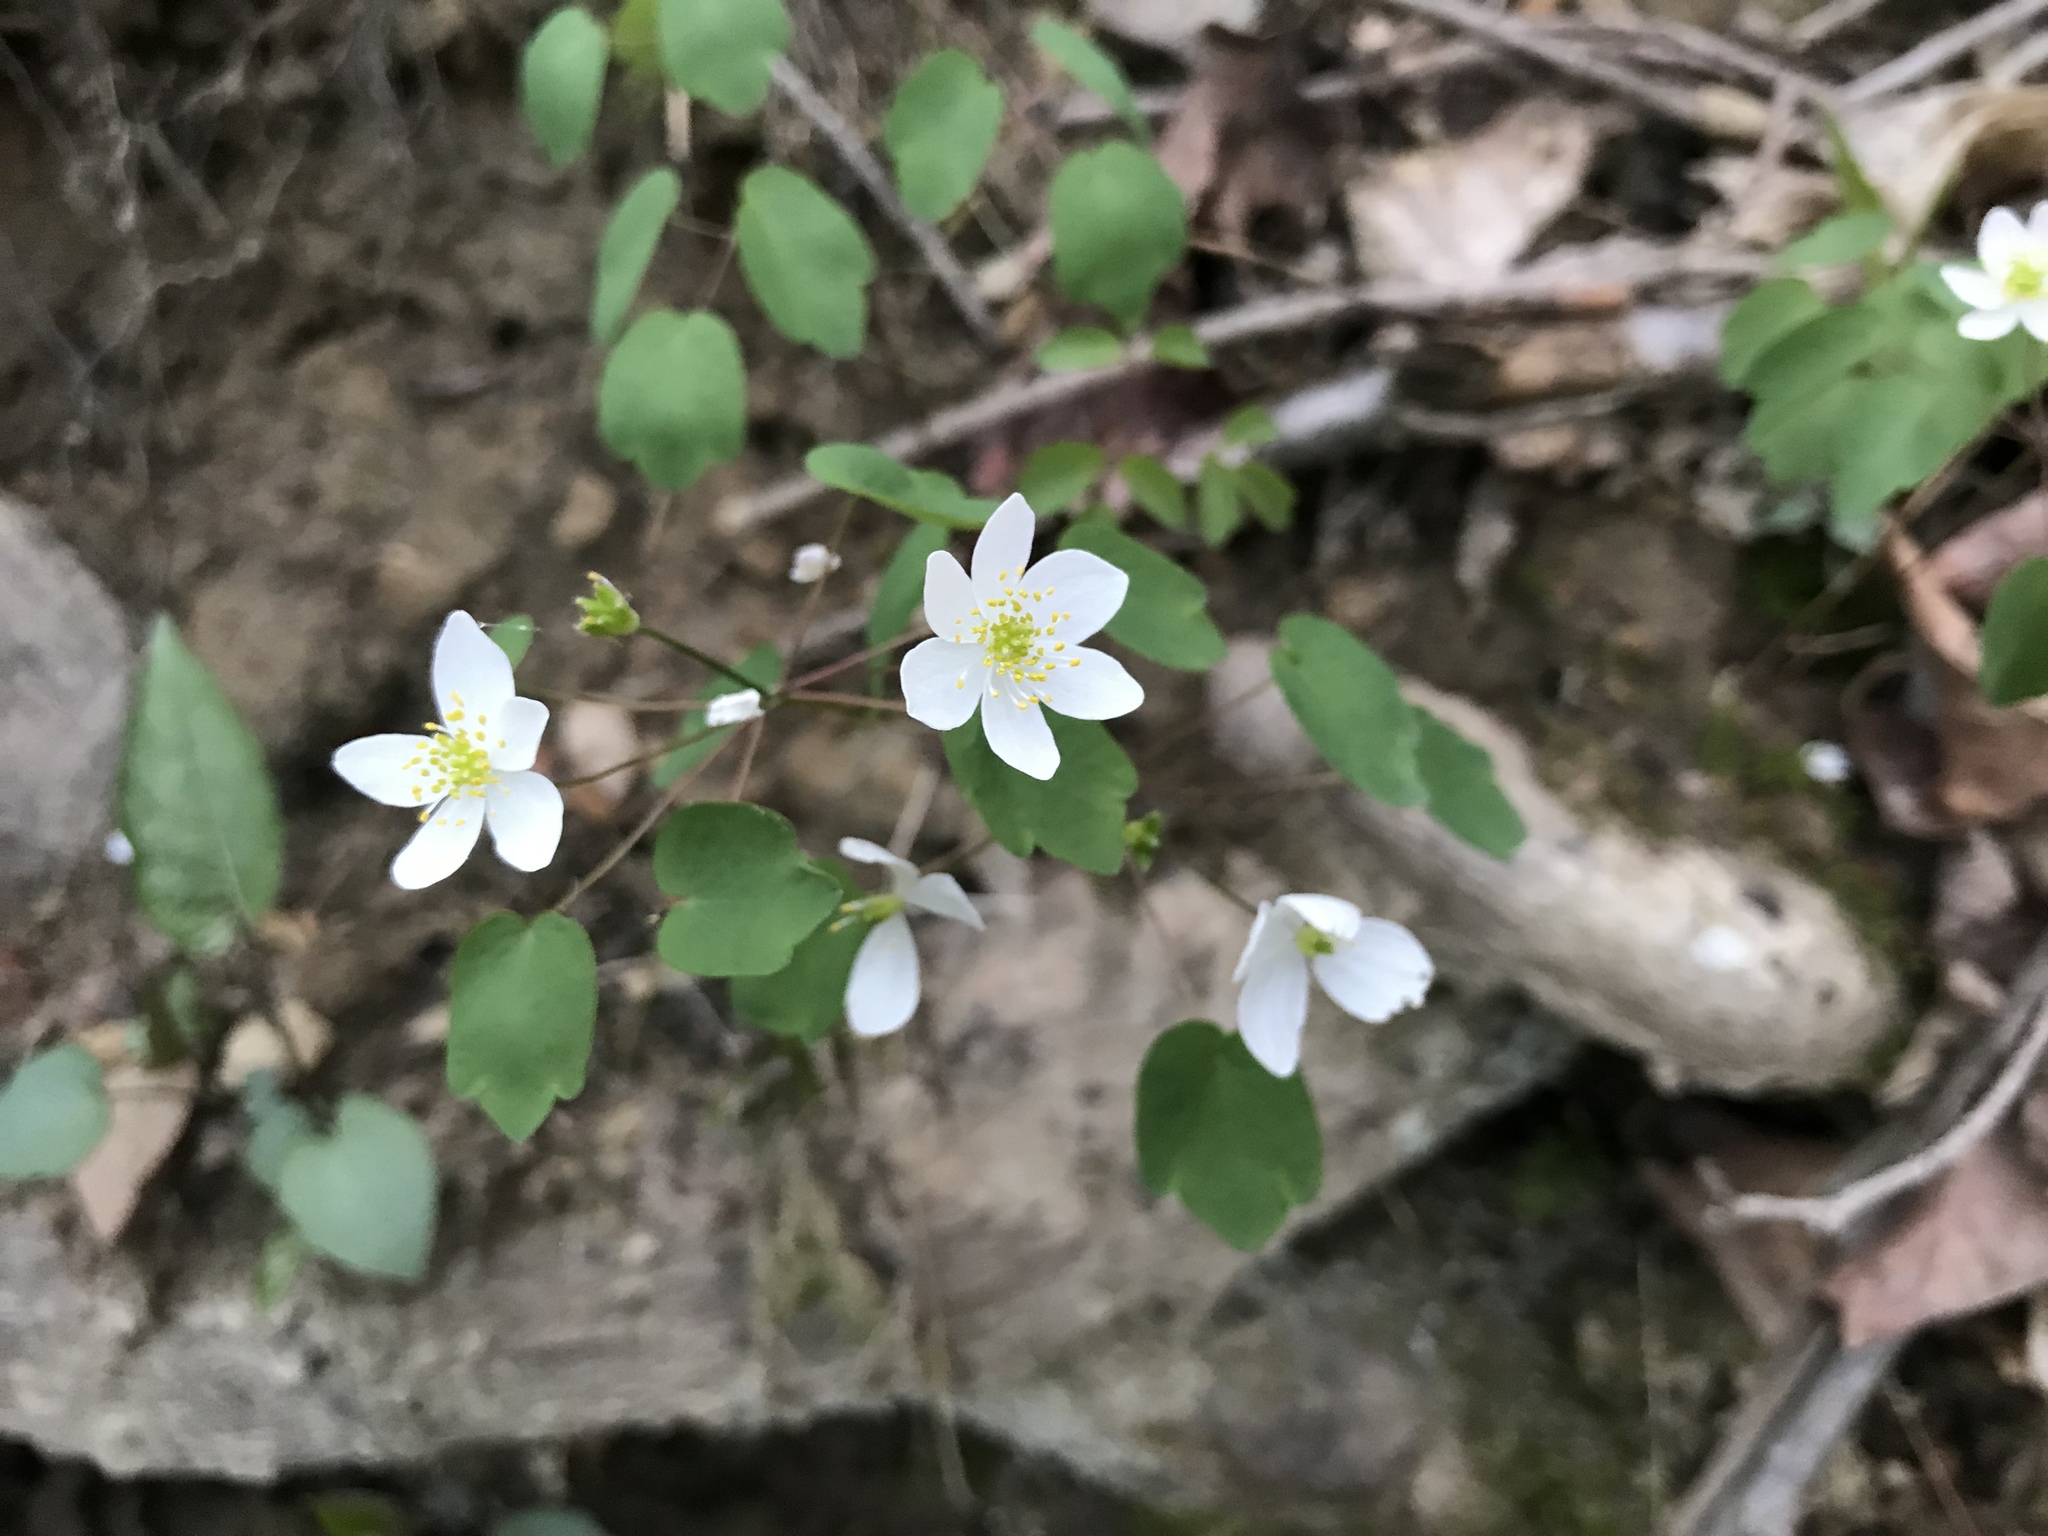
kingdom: Plantae
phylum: Tracheophyta
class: Magnoliopsida
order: Ranunculales
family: Ranunculaceae
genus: Thalictrum
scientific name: Thalictrum thalictroides
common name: Rue-anemone
